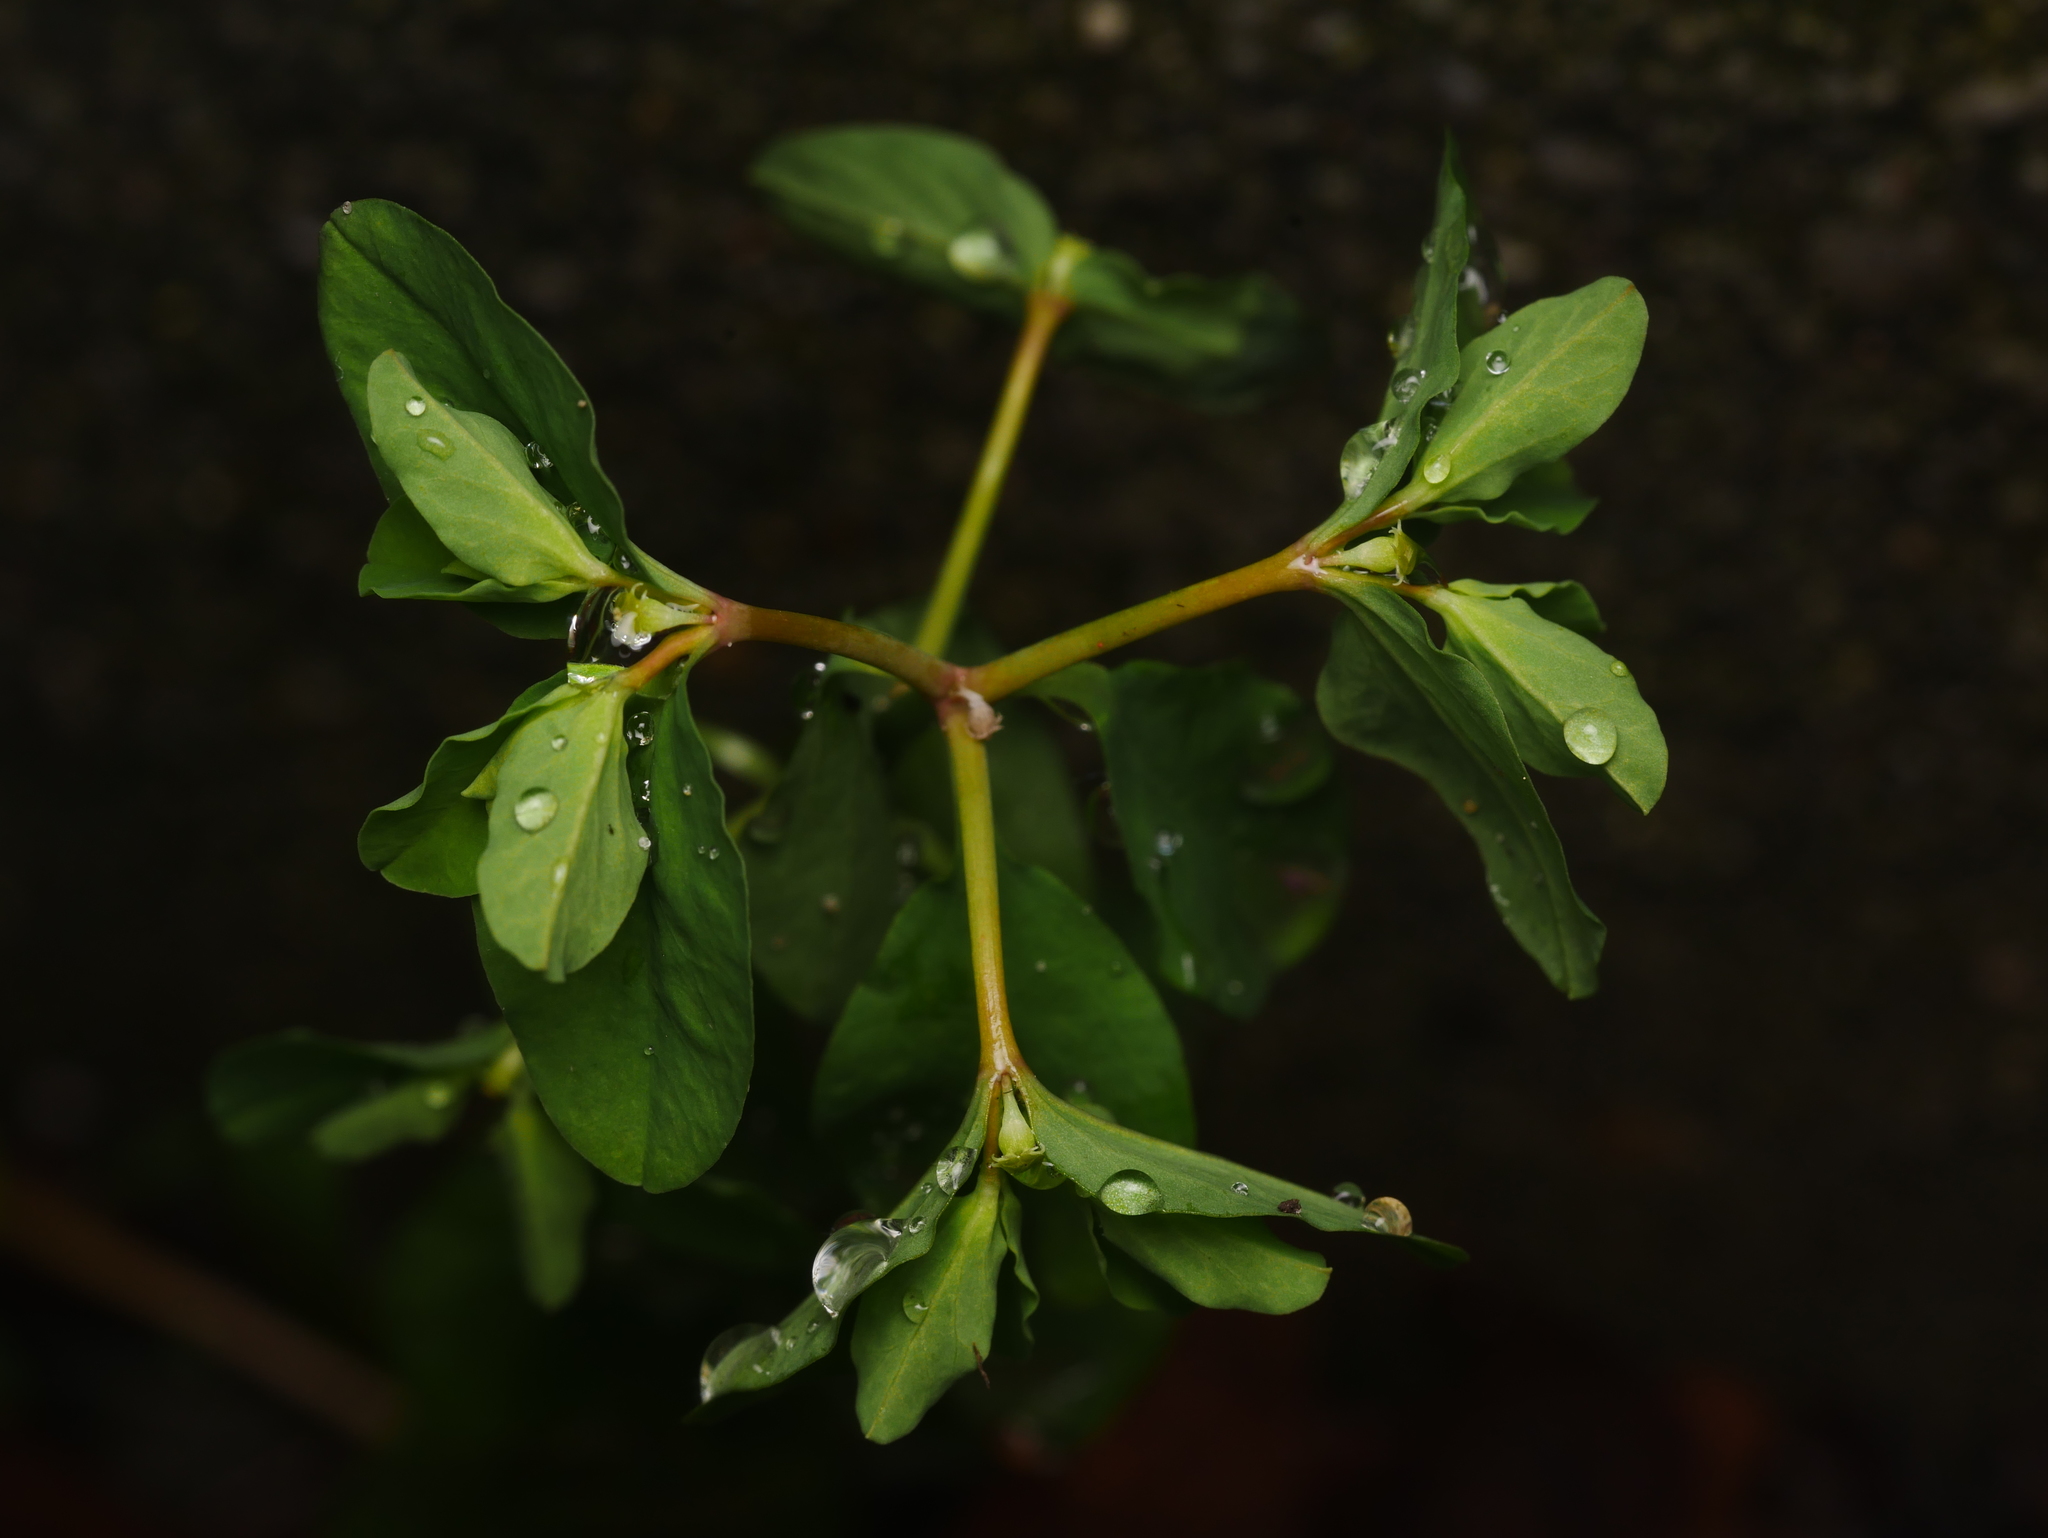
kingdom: Plantae
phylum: Tracheophyta
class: Magnoliopsida
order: Malpighiales
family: Euphorbiaceae
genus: Euphorbia
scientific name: Euphorbia peplus
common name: Petty spurge
